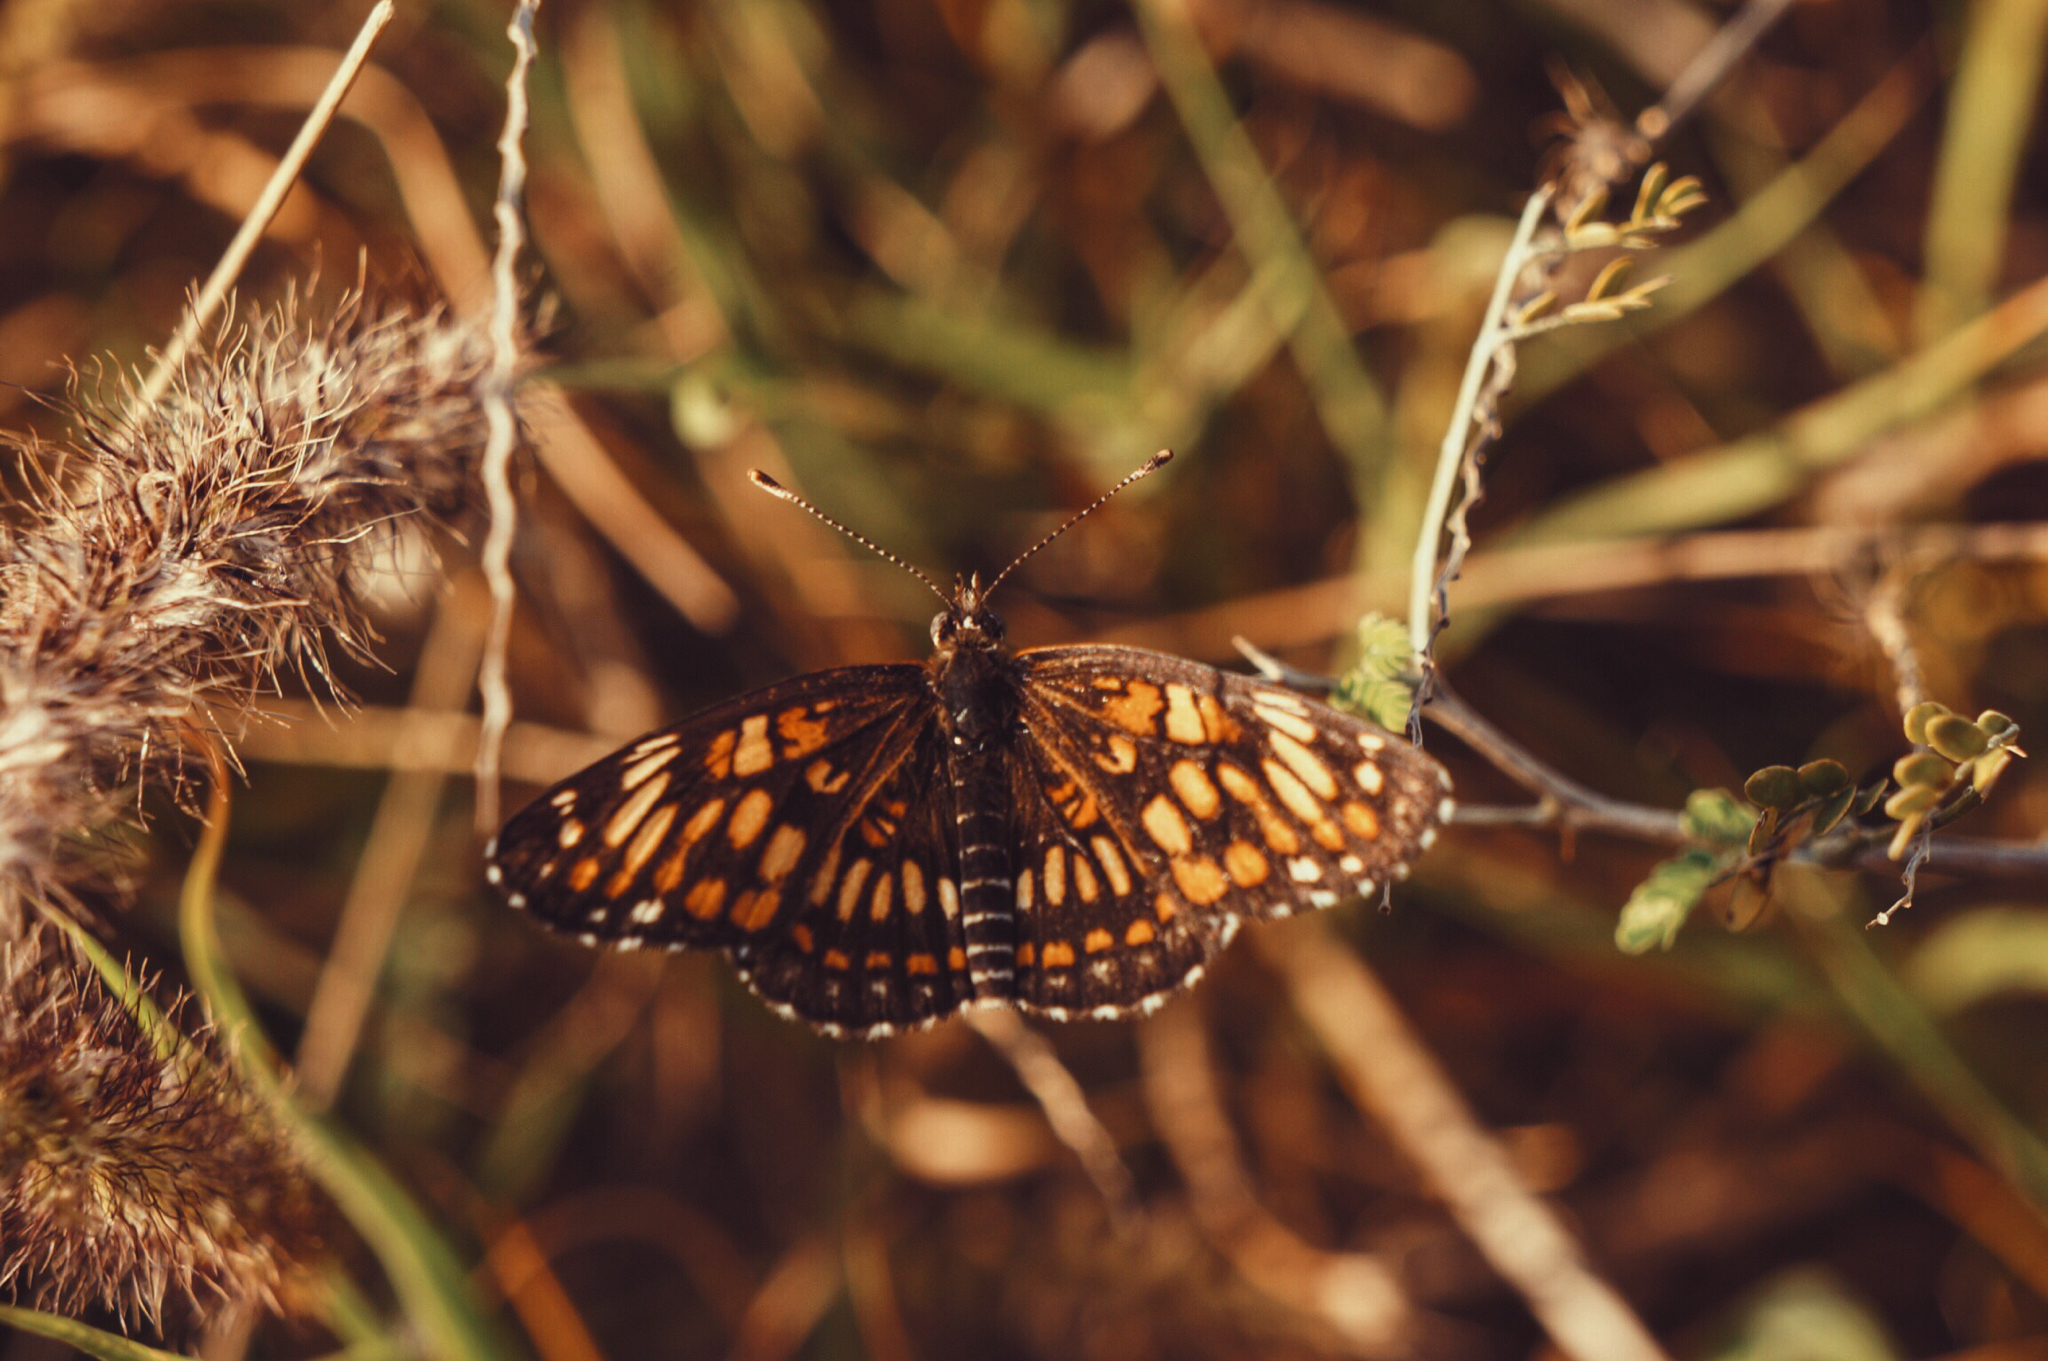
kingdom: Animalia
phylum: Arthropoda
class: Insecta
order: Lepidoptera
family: Nymphalidae
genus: Chlosyne
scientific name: Chlosyne
